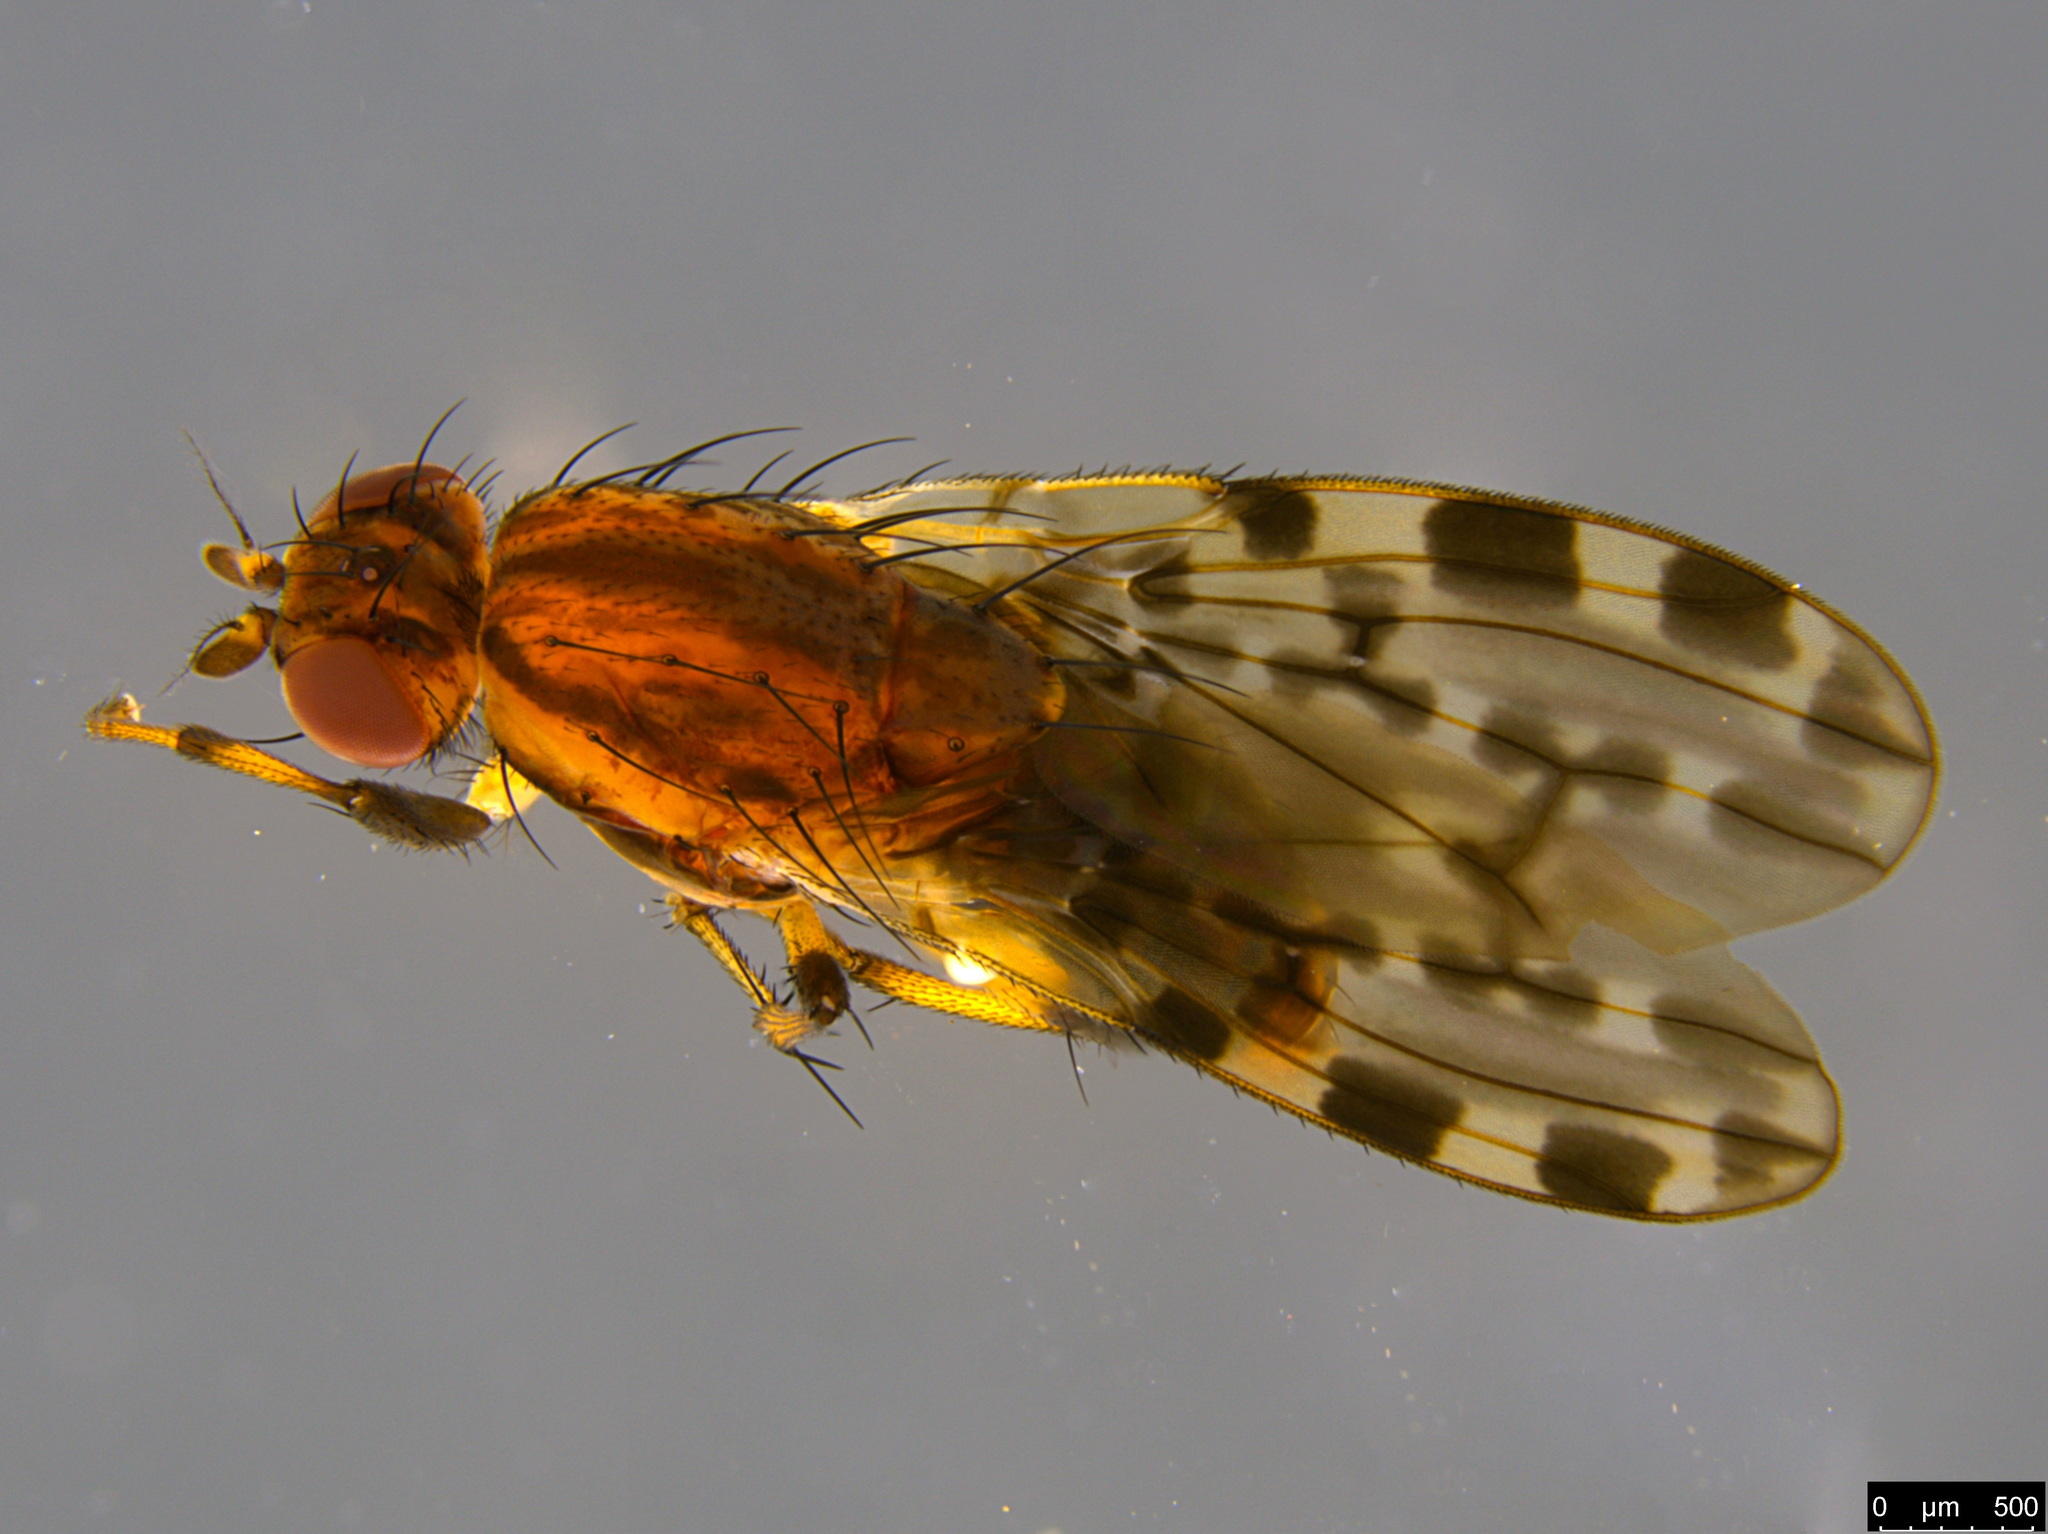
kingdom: Animalia
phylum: Arthropoda
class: Insecta
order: Diptera
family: Heleomyzidae
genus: Diplogeomyza
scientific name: Diplogeomyza maculipennis
